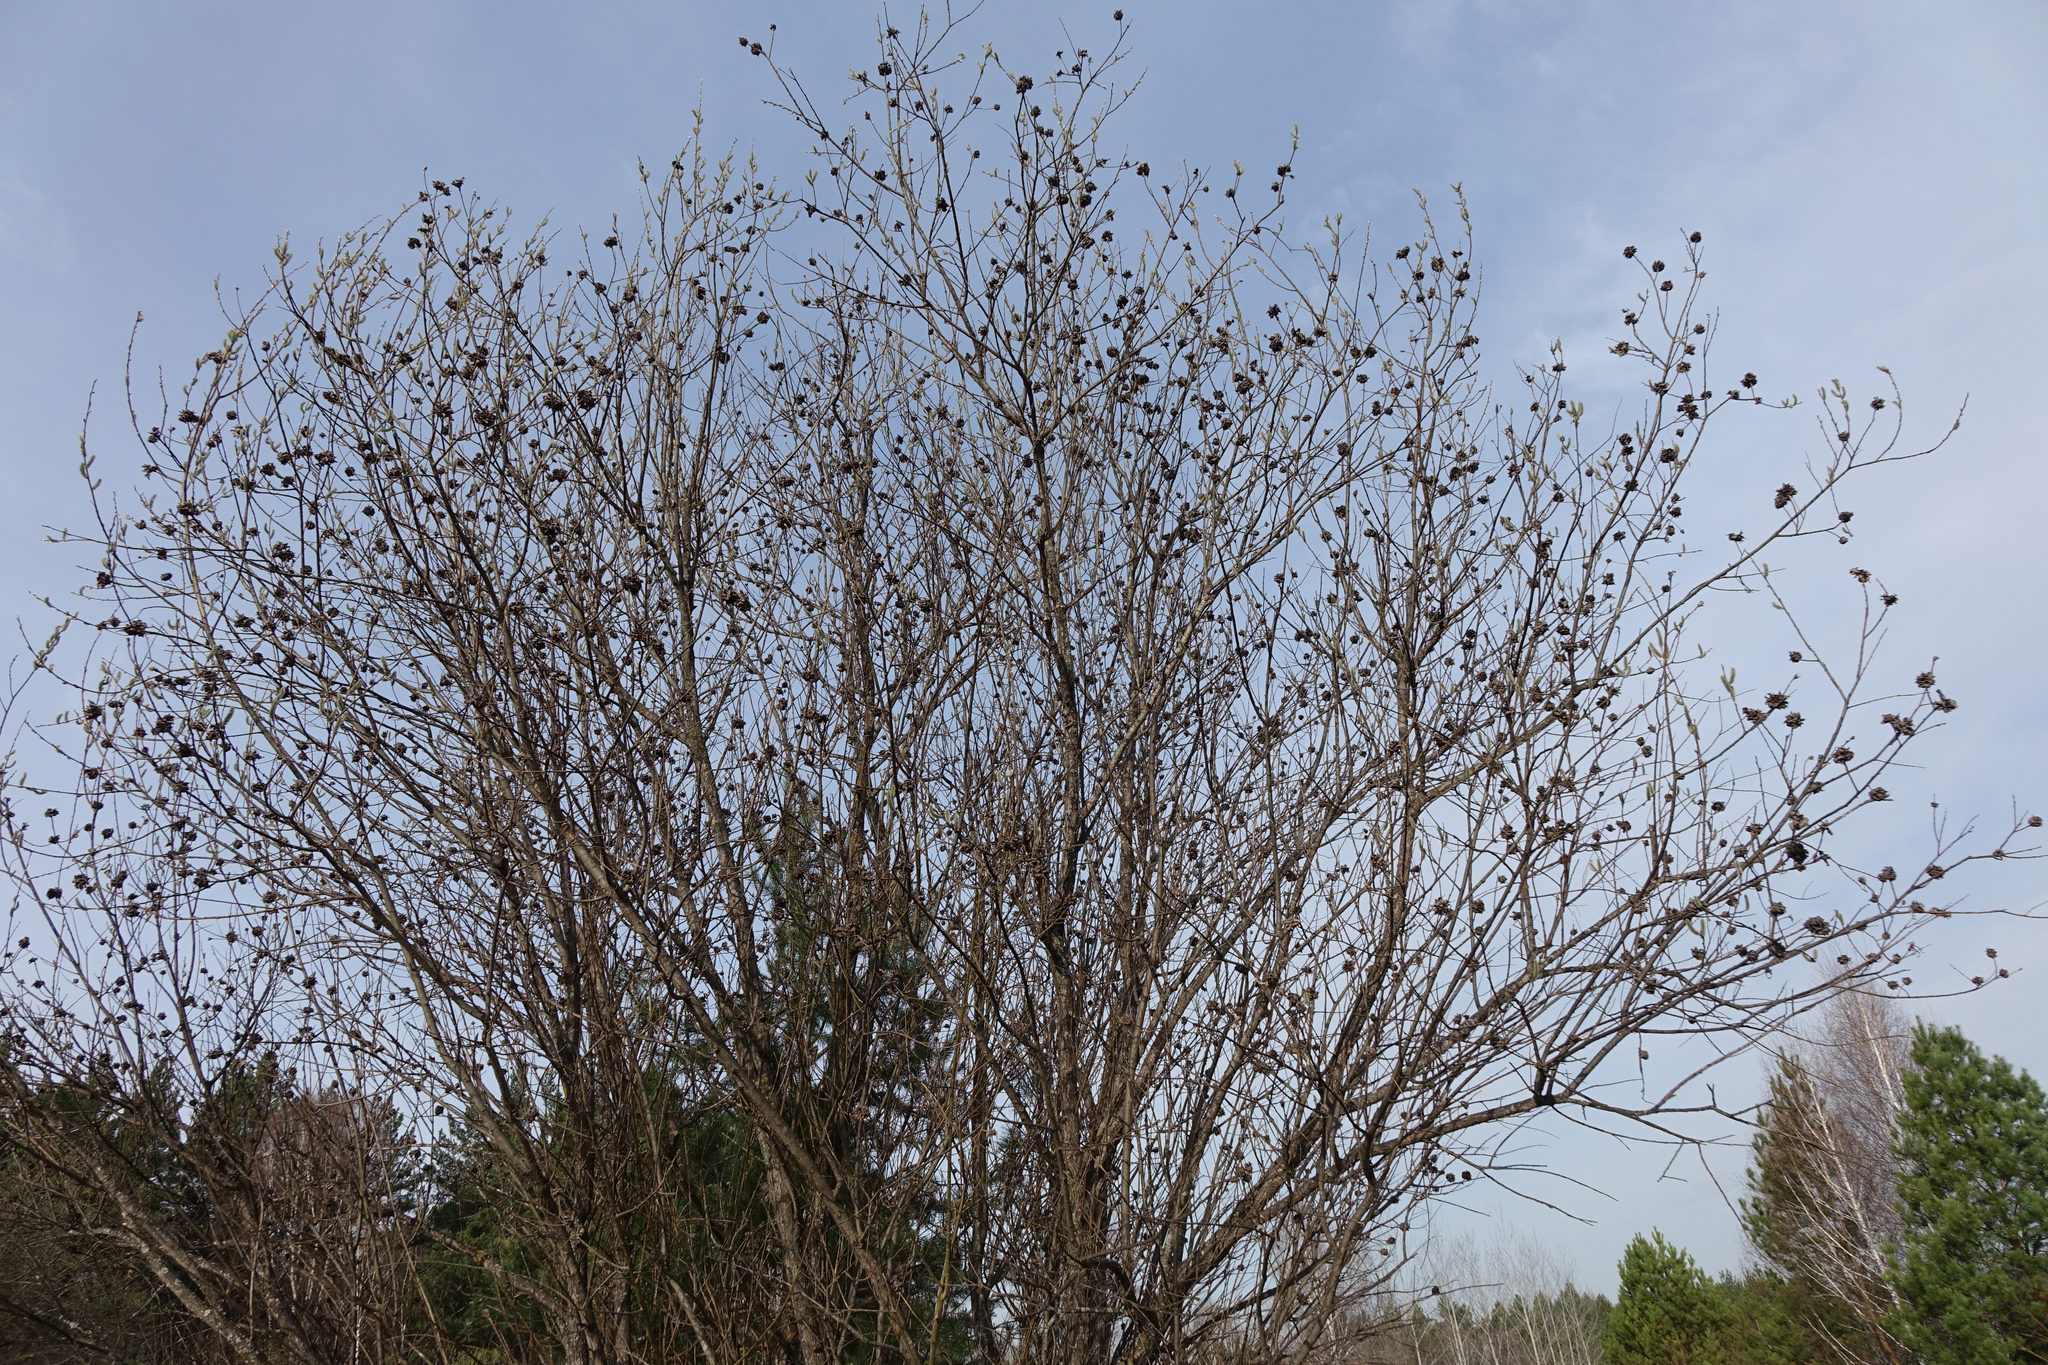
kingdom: Plantae
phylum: Tracheophyta
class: Magnoliopsida
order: Malpighiales
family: Salicaceae
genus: Salix
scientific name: Salix cinerea
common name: Common sallow
